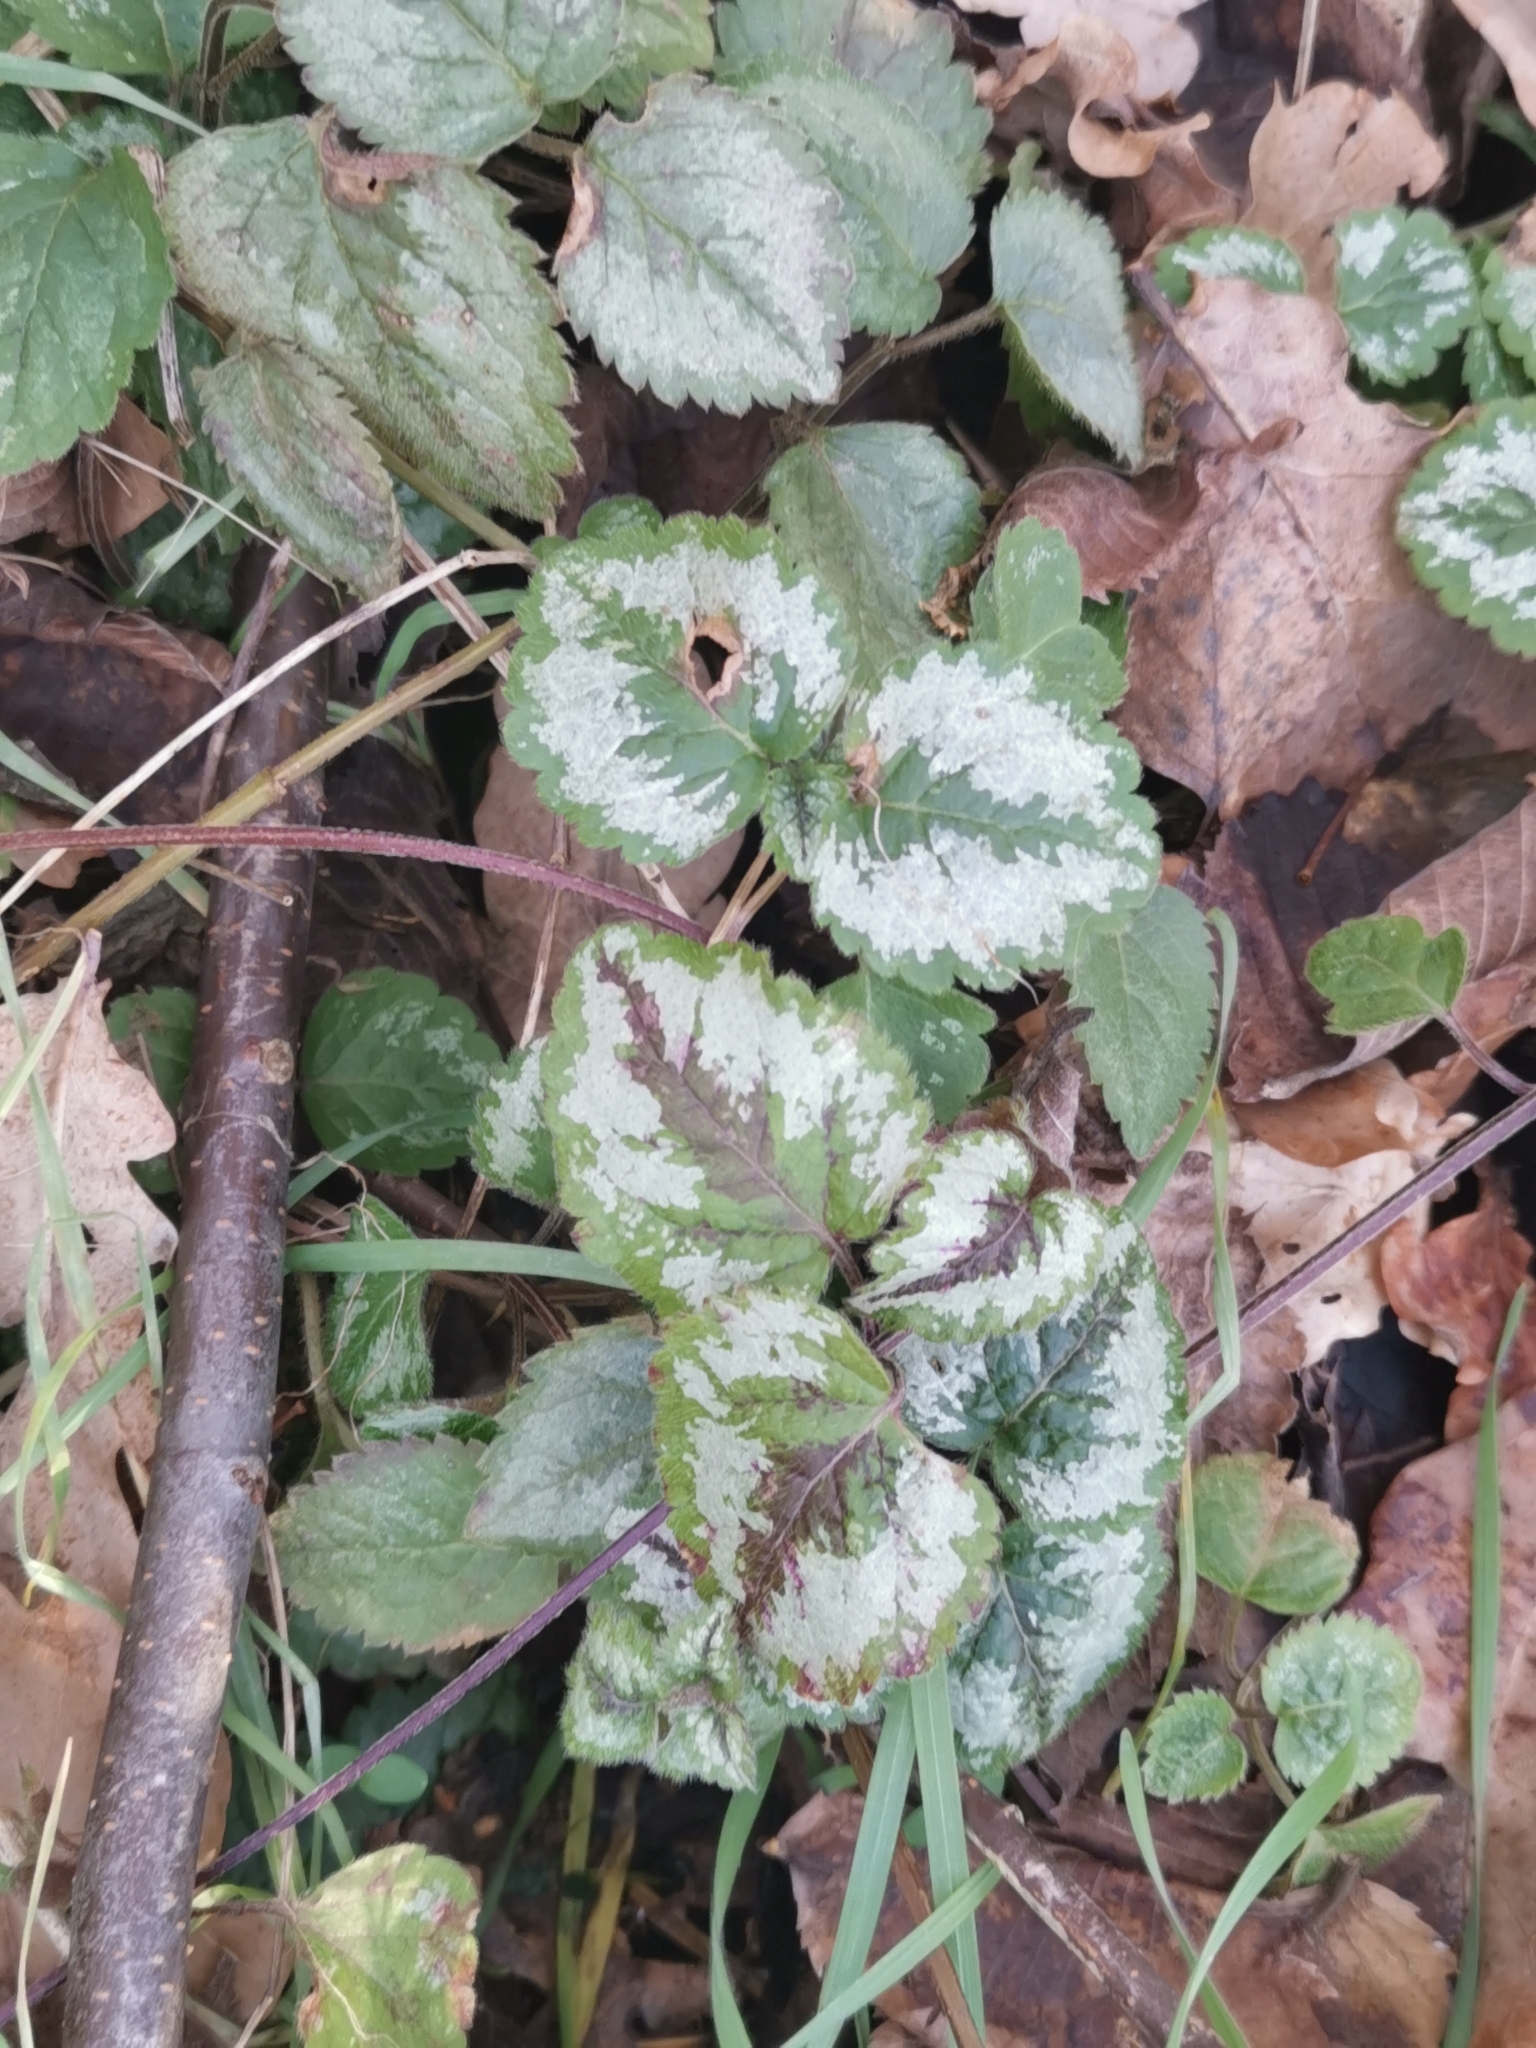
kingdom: Plantae
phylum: Tracheophyta
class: Magnoliopsida
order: Lamiales
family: Lamiaceae
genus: Lamium
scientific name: Lamium galeobdolon
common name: Yellow archangel
